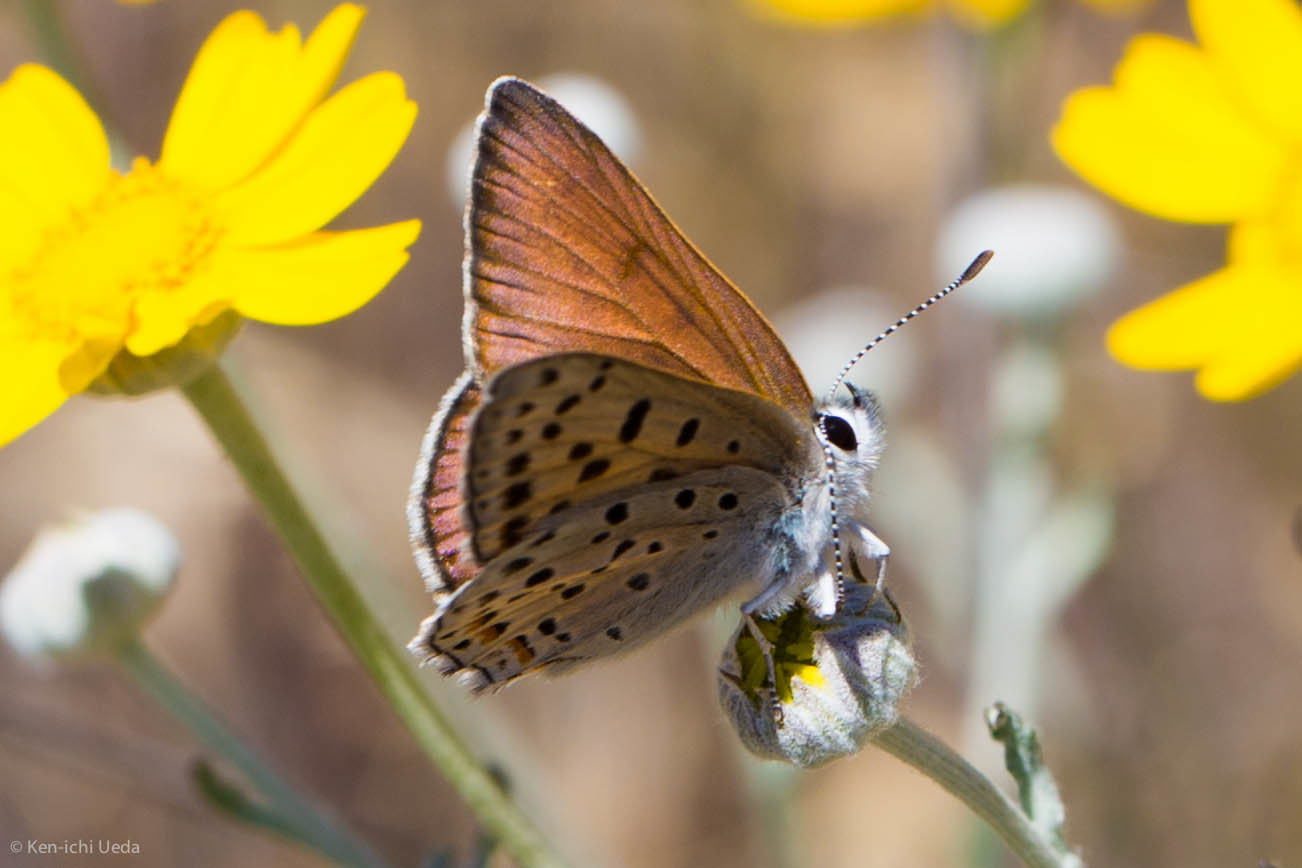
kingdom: Animalia
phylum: Arthropoda
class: Insecta
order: Lepidoptera
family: Lycaenidae
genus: Tharsalea
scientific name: Tharsalea gorgon
